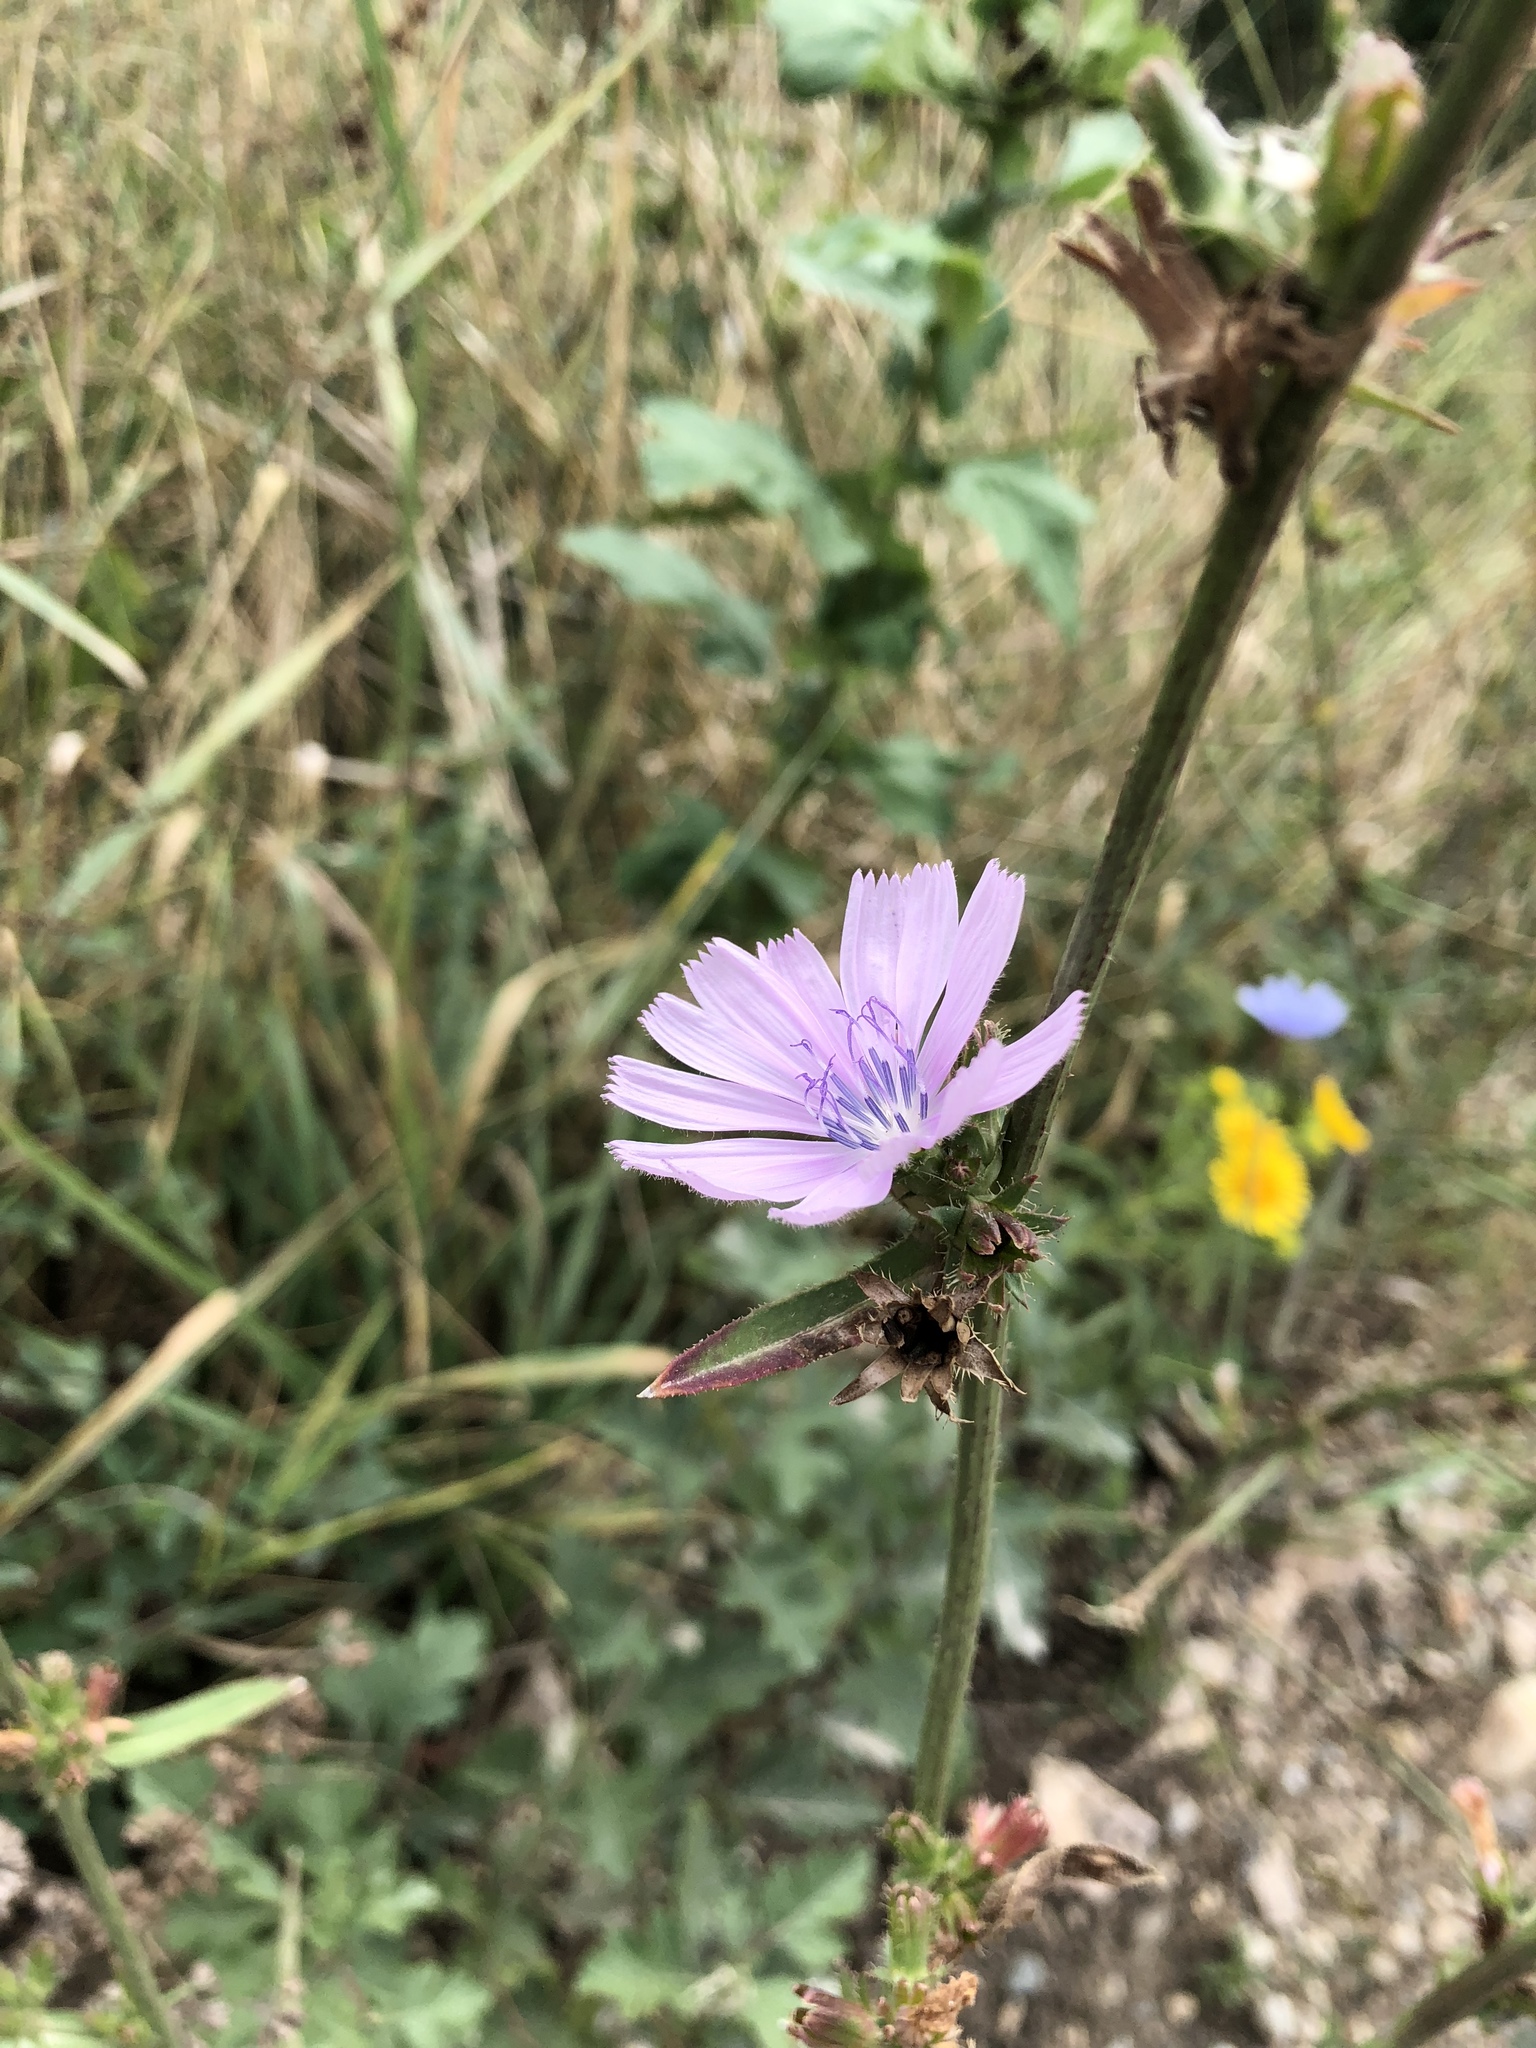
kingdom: Plantae
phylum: Tracheophyta
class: Magnoliopsida
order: Asterales
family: Asteraceae
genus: Cichorium
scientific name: Cichorium intybus
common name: Chicory
